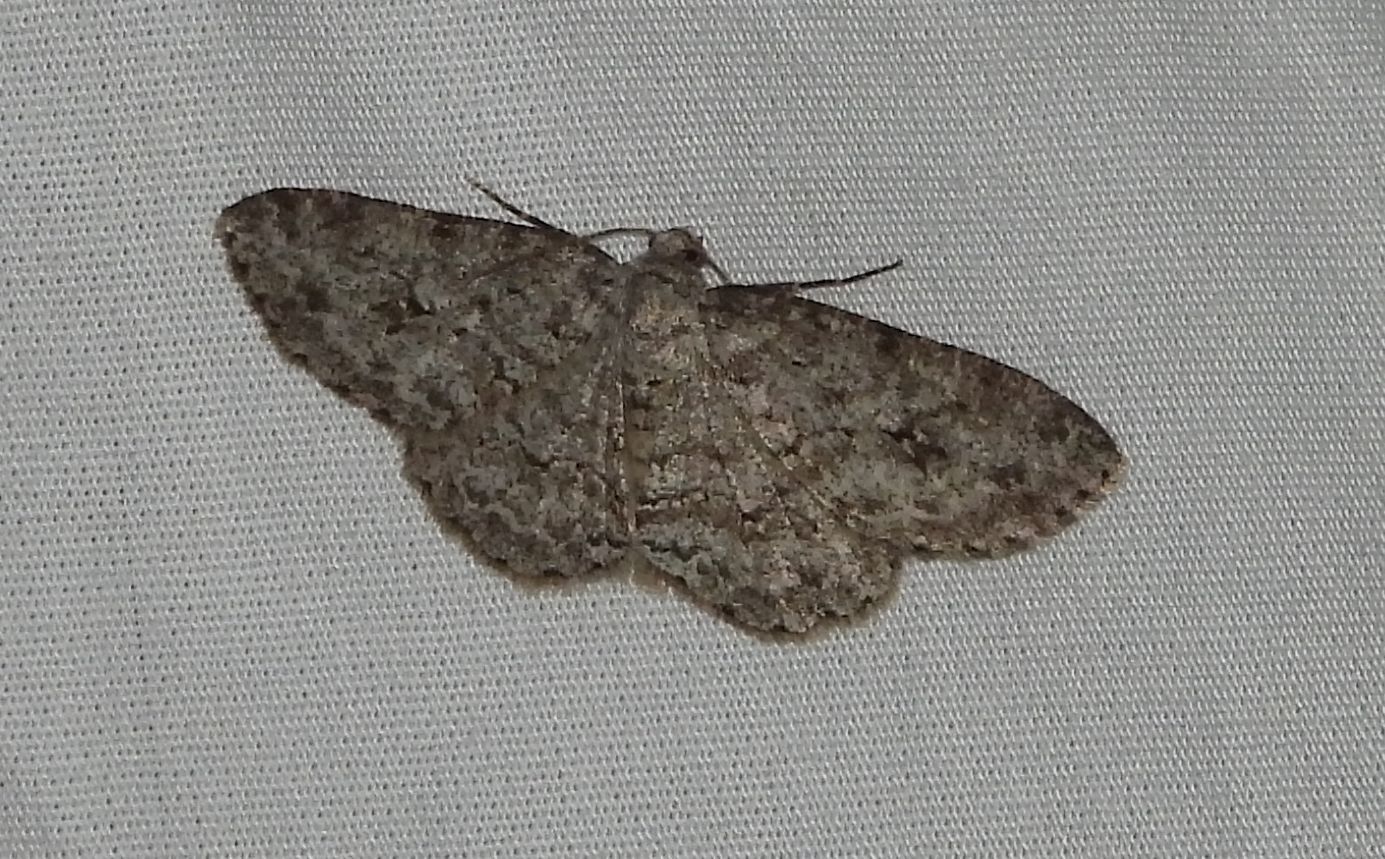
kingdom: Animalia
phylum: Arthropoda
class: Insecta
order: Lepidoptera
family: Geometridae
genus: Ectropis
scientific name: Ectropis crepuscularia
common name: Engrailed
